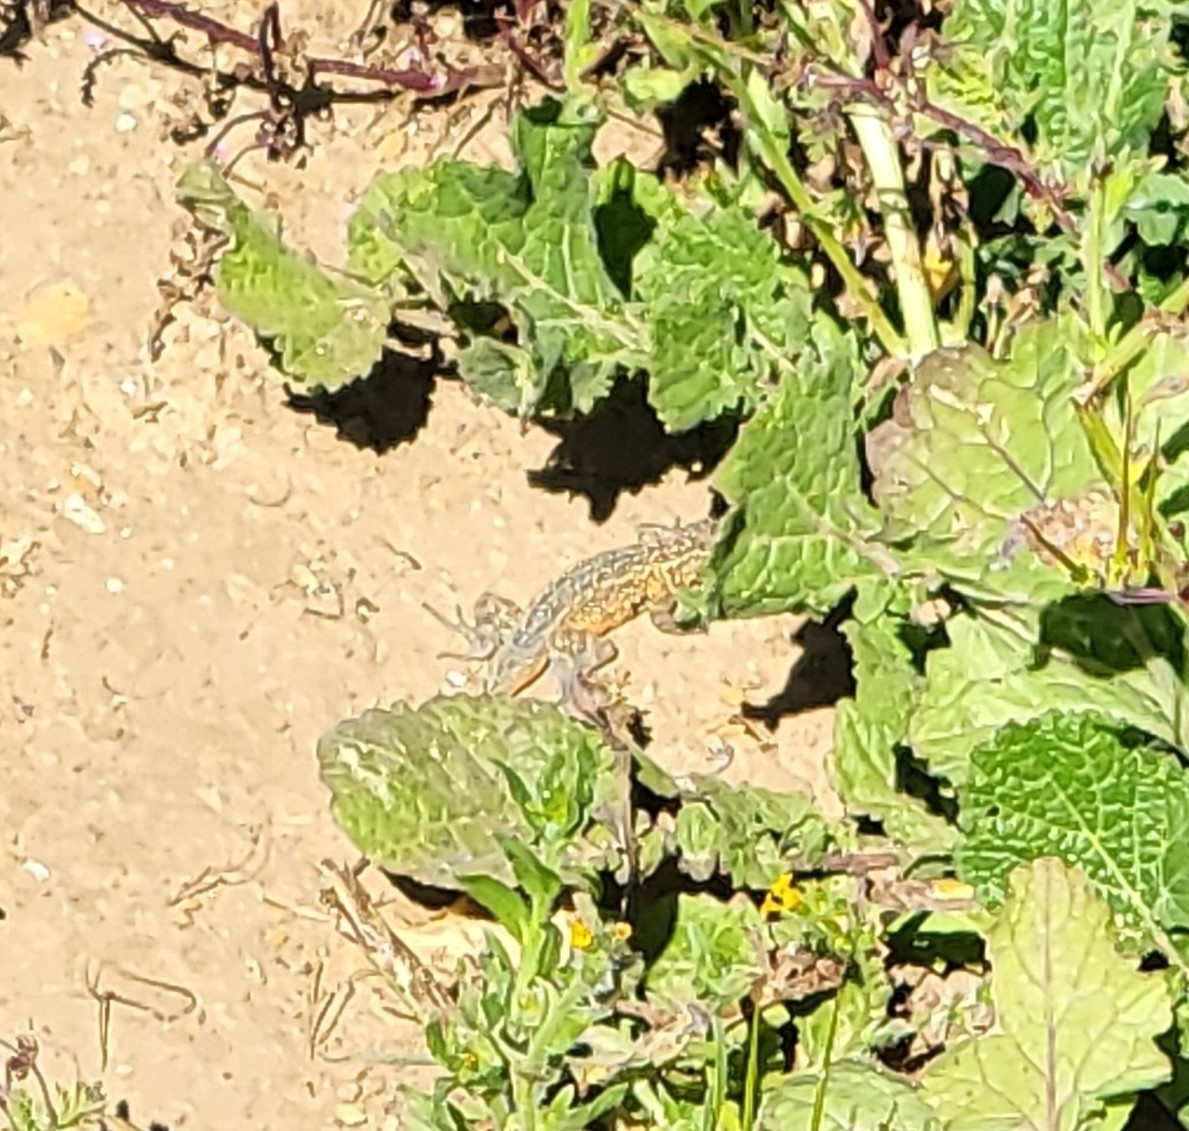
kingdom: Animalia
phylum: Chordata
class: Squamata
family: Phrynosomatidae
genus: Uta
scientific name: Uta stansburiana
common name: Side-blotched lizard
